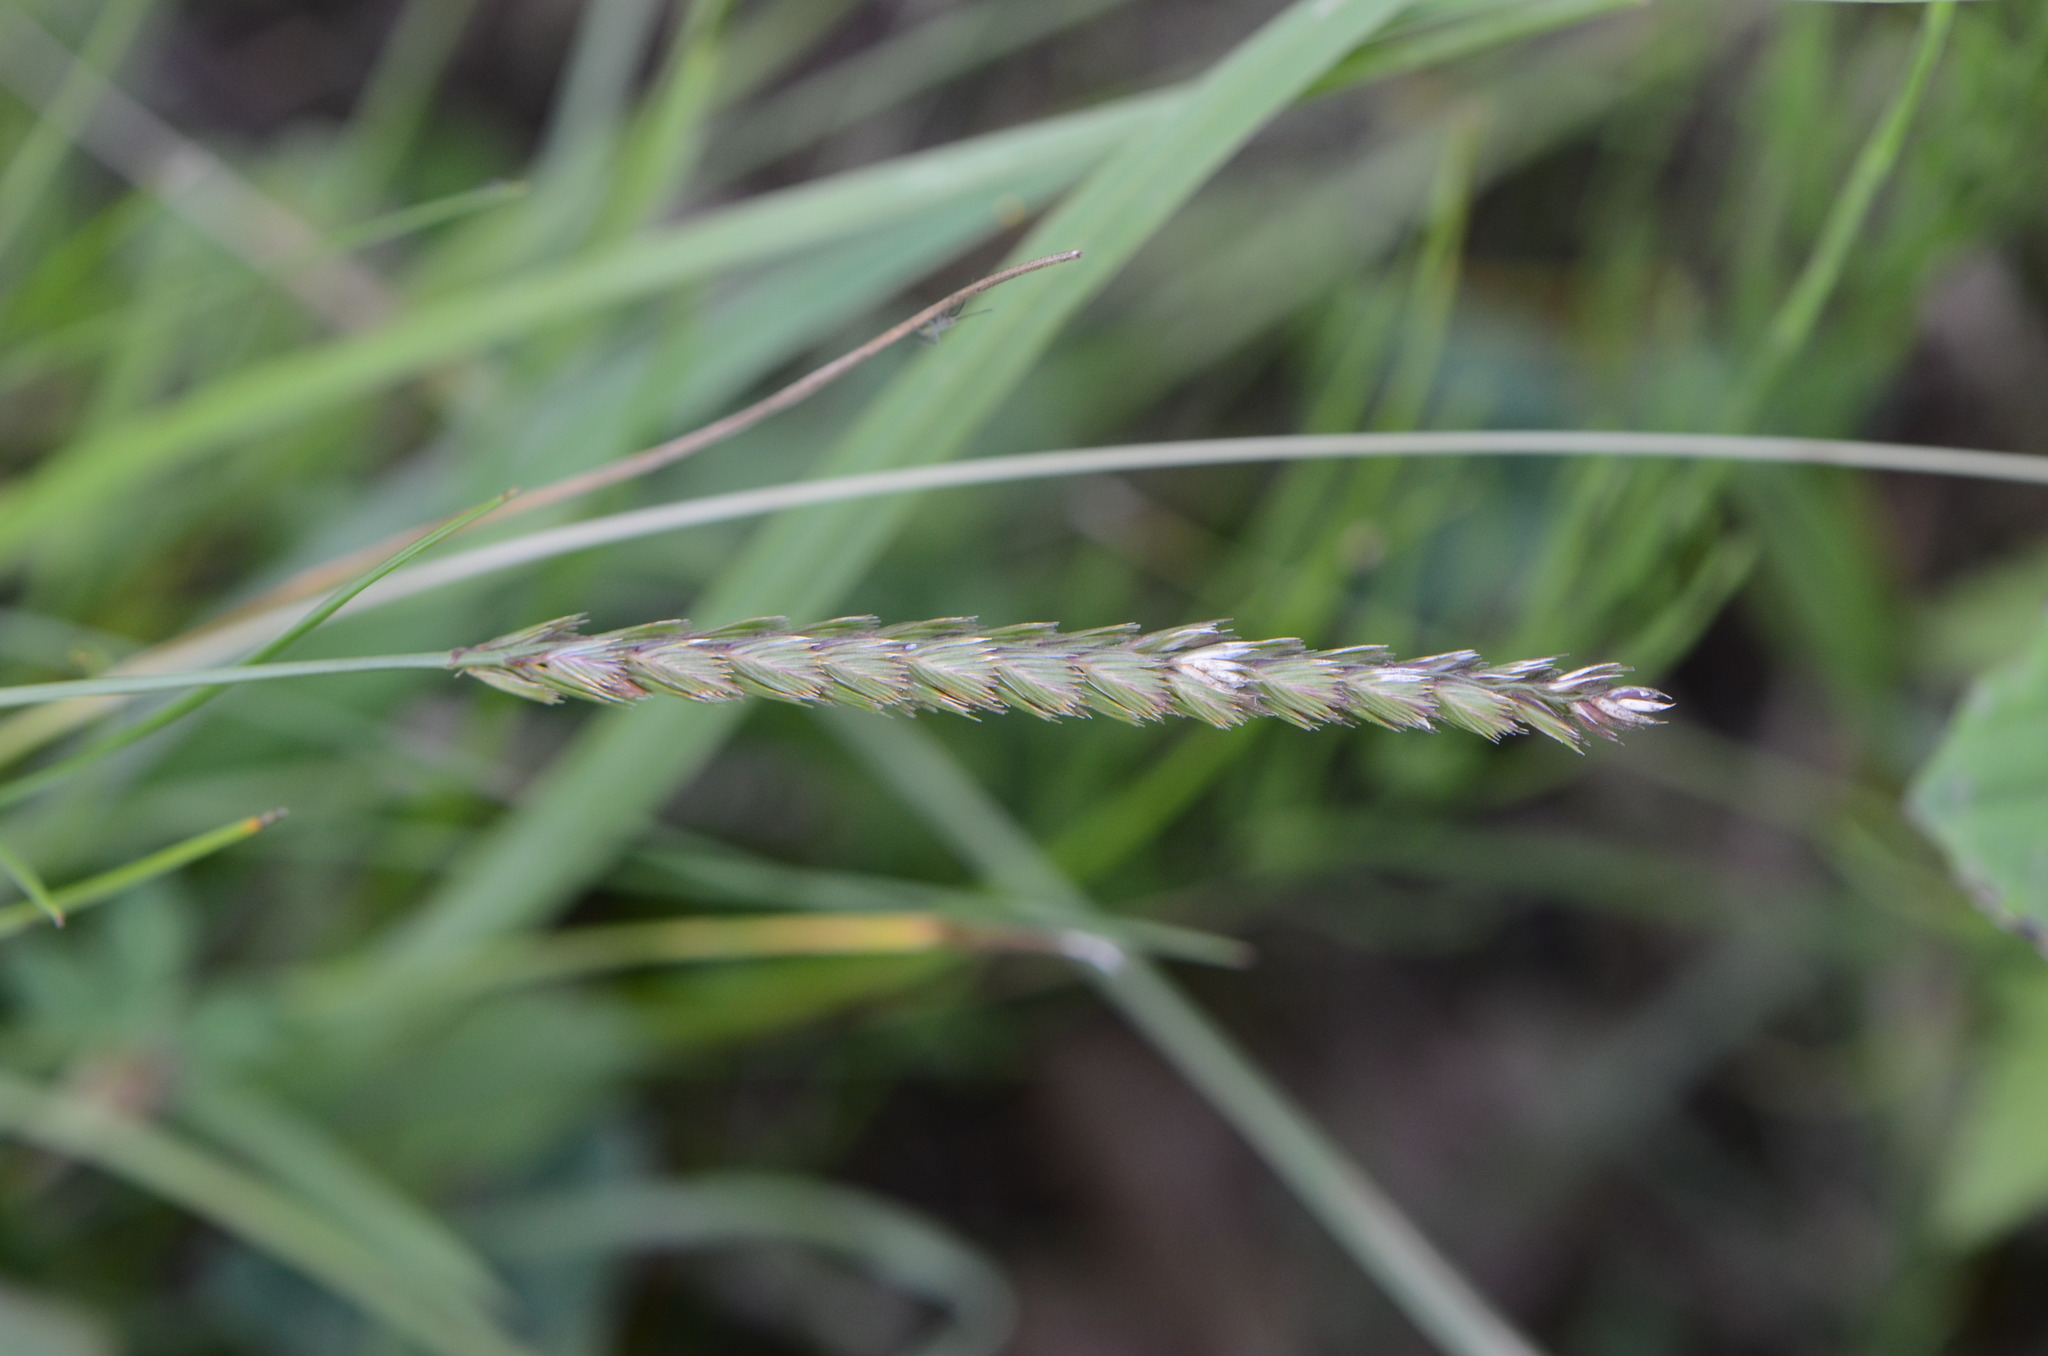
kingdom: Plantae
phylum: Tracheophyta
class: Liliopsida
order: Poales
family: Poaceae
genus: Cynosurus
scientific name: Cynosurus cristatus
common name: Crested dog's-tail
